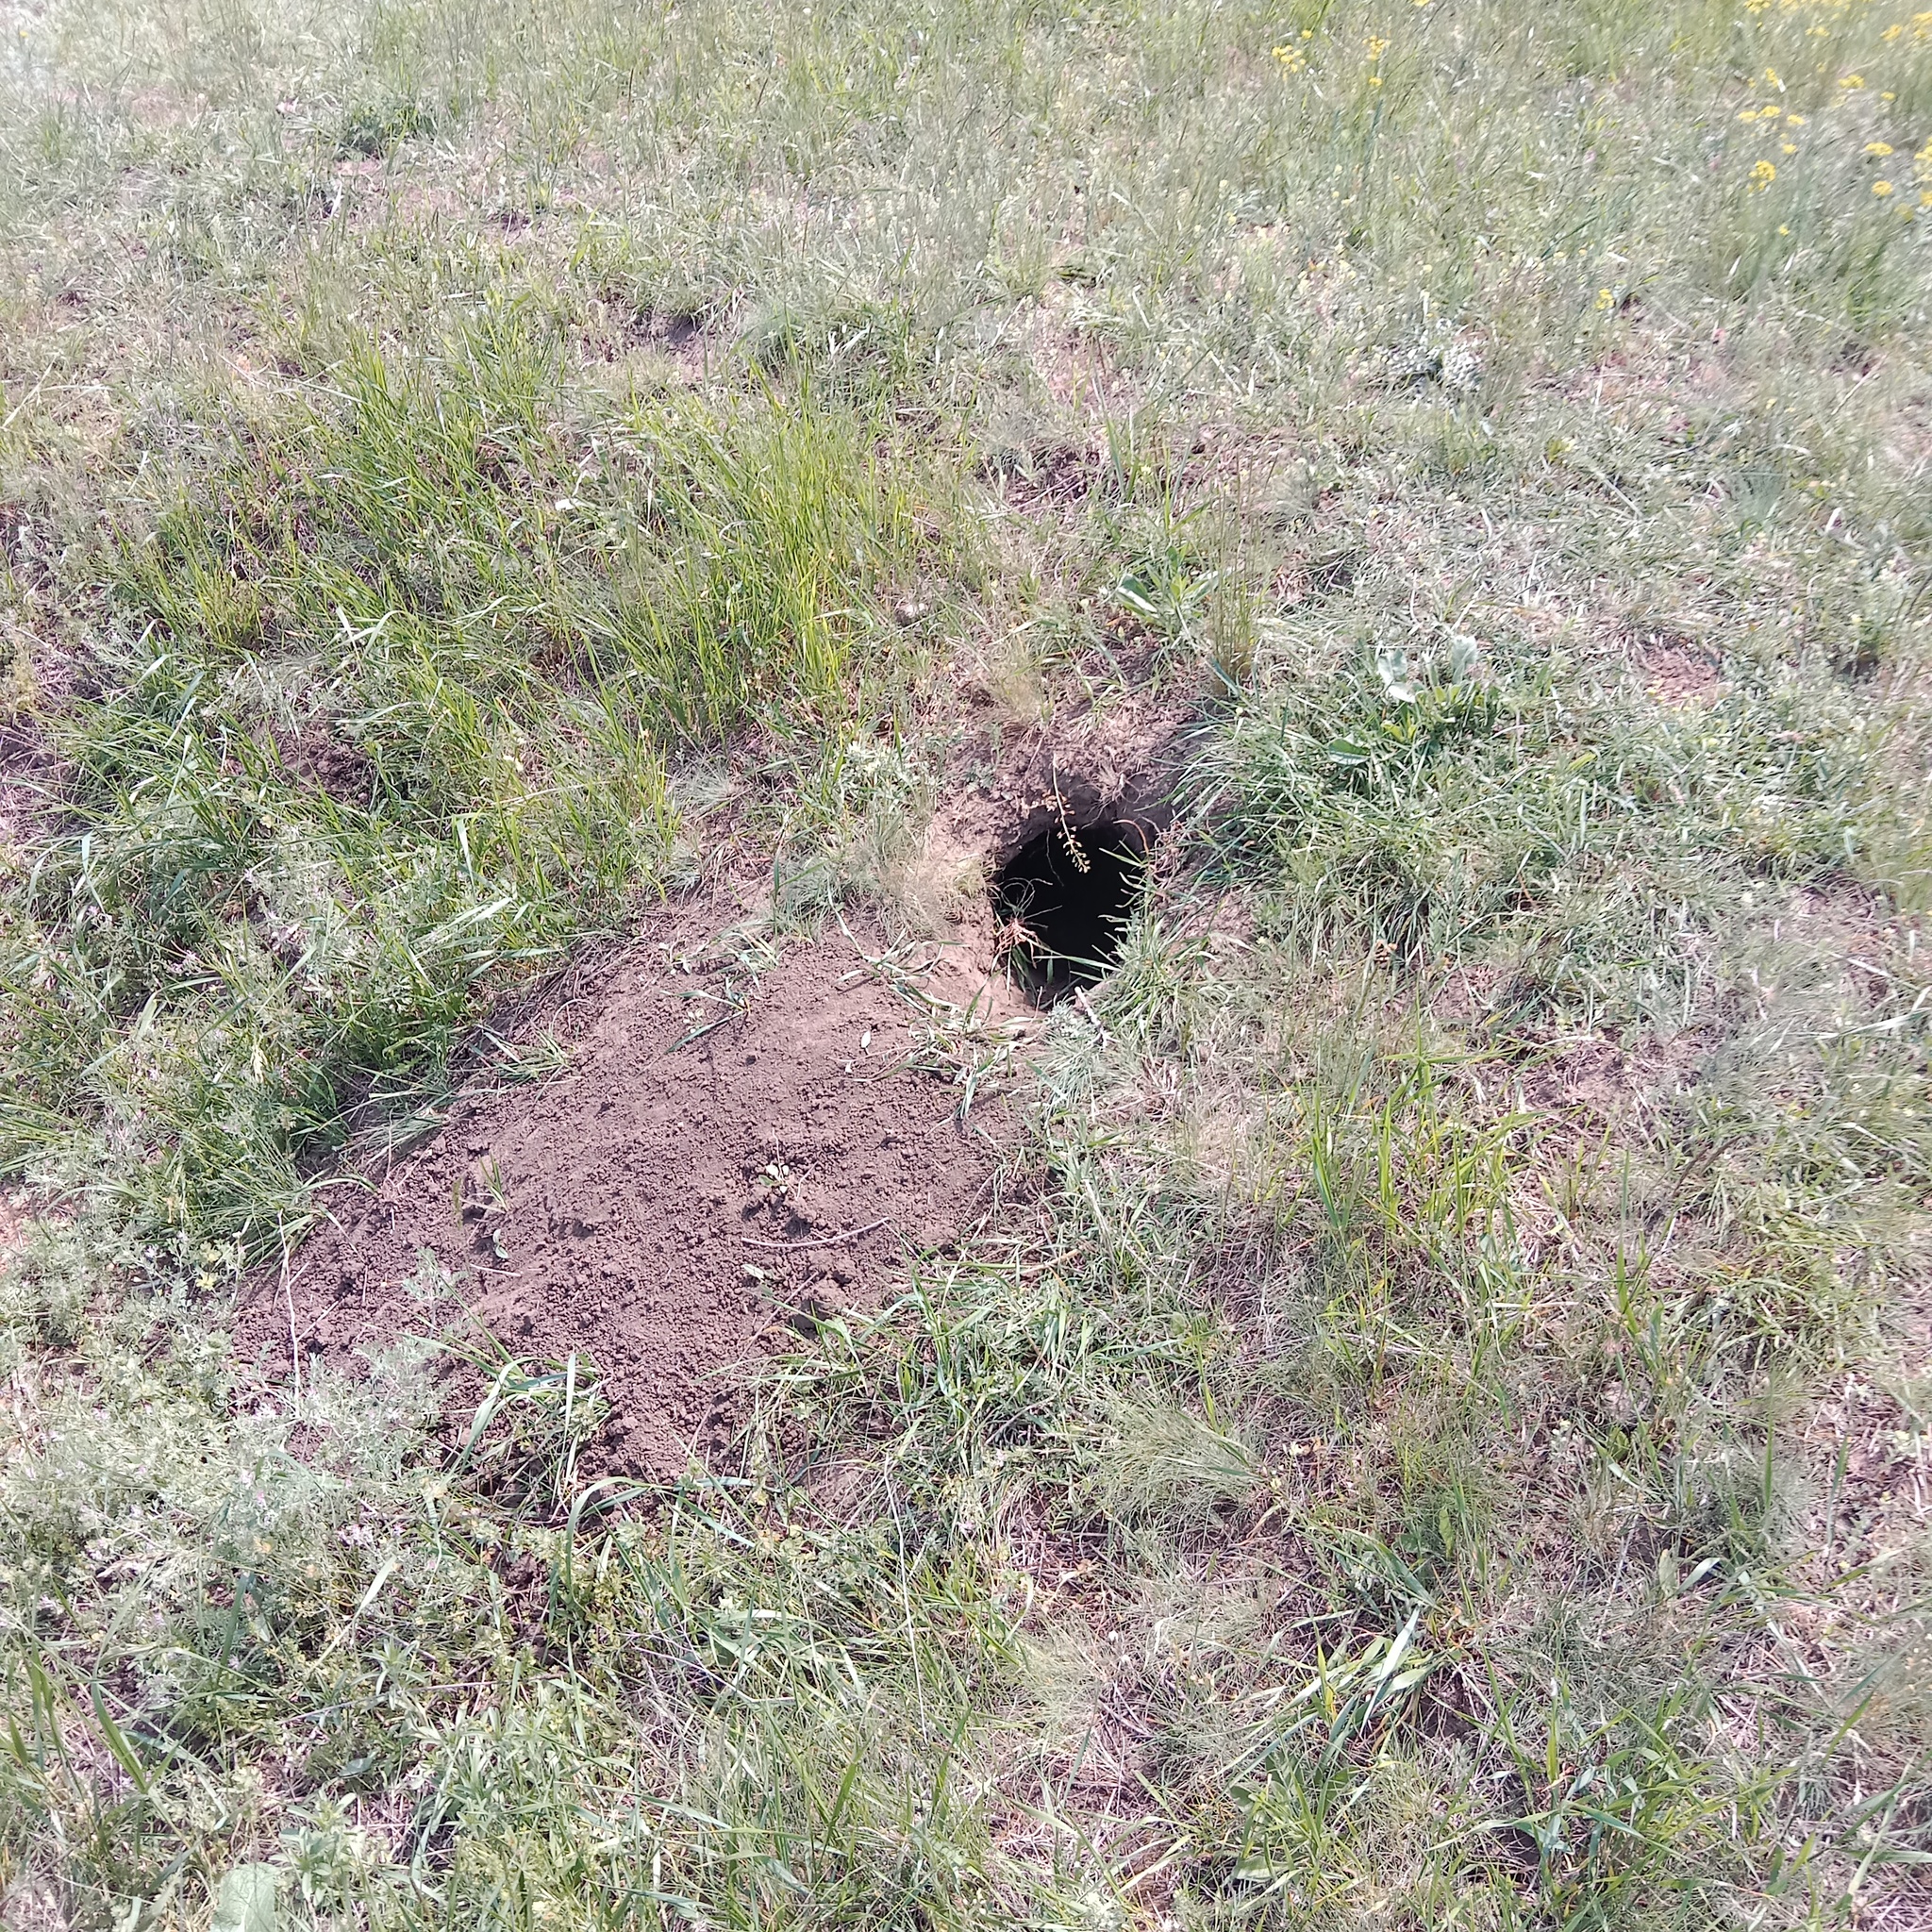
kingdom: Animalia
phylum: Chordata
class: Mammalia
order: Rodentia
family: Sciuridae
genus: Marmota
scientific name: Marmota bobak
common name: Bobak marmot
